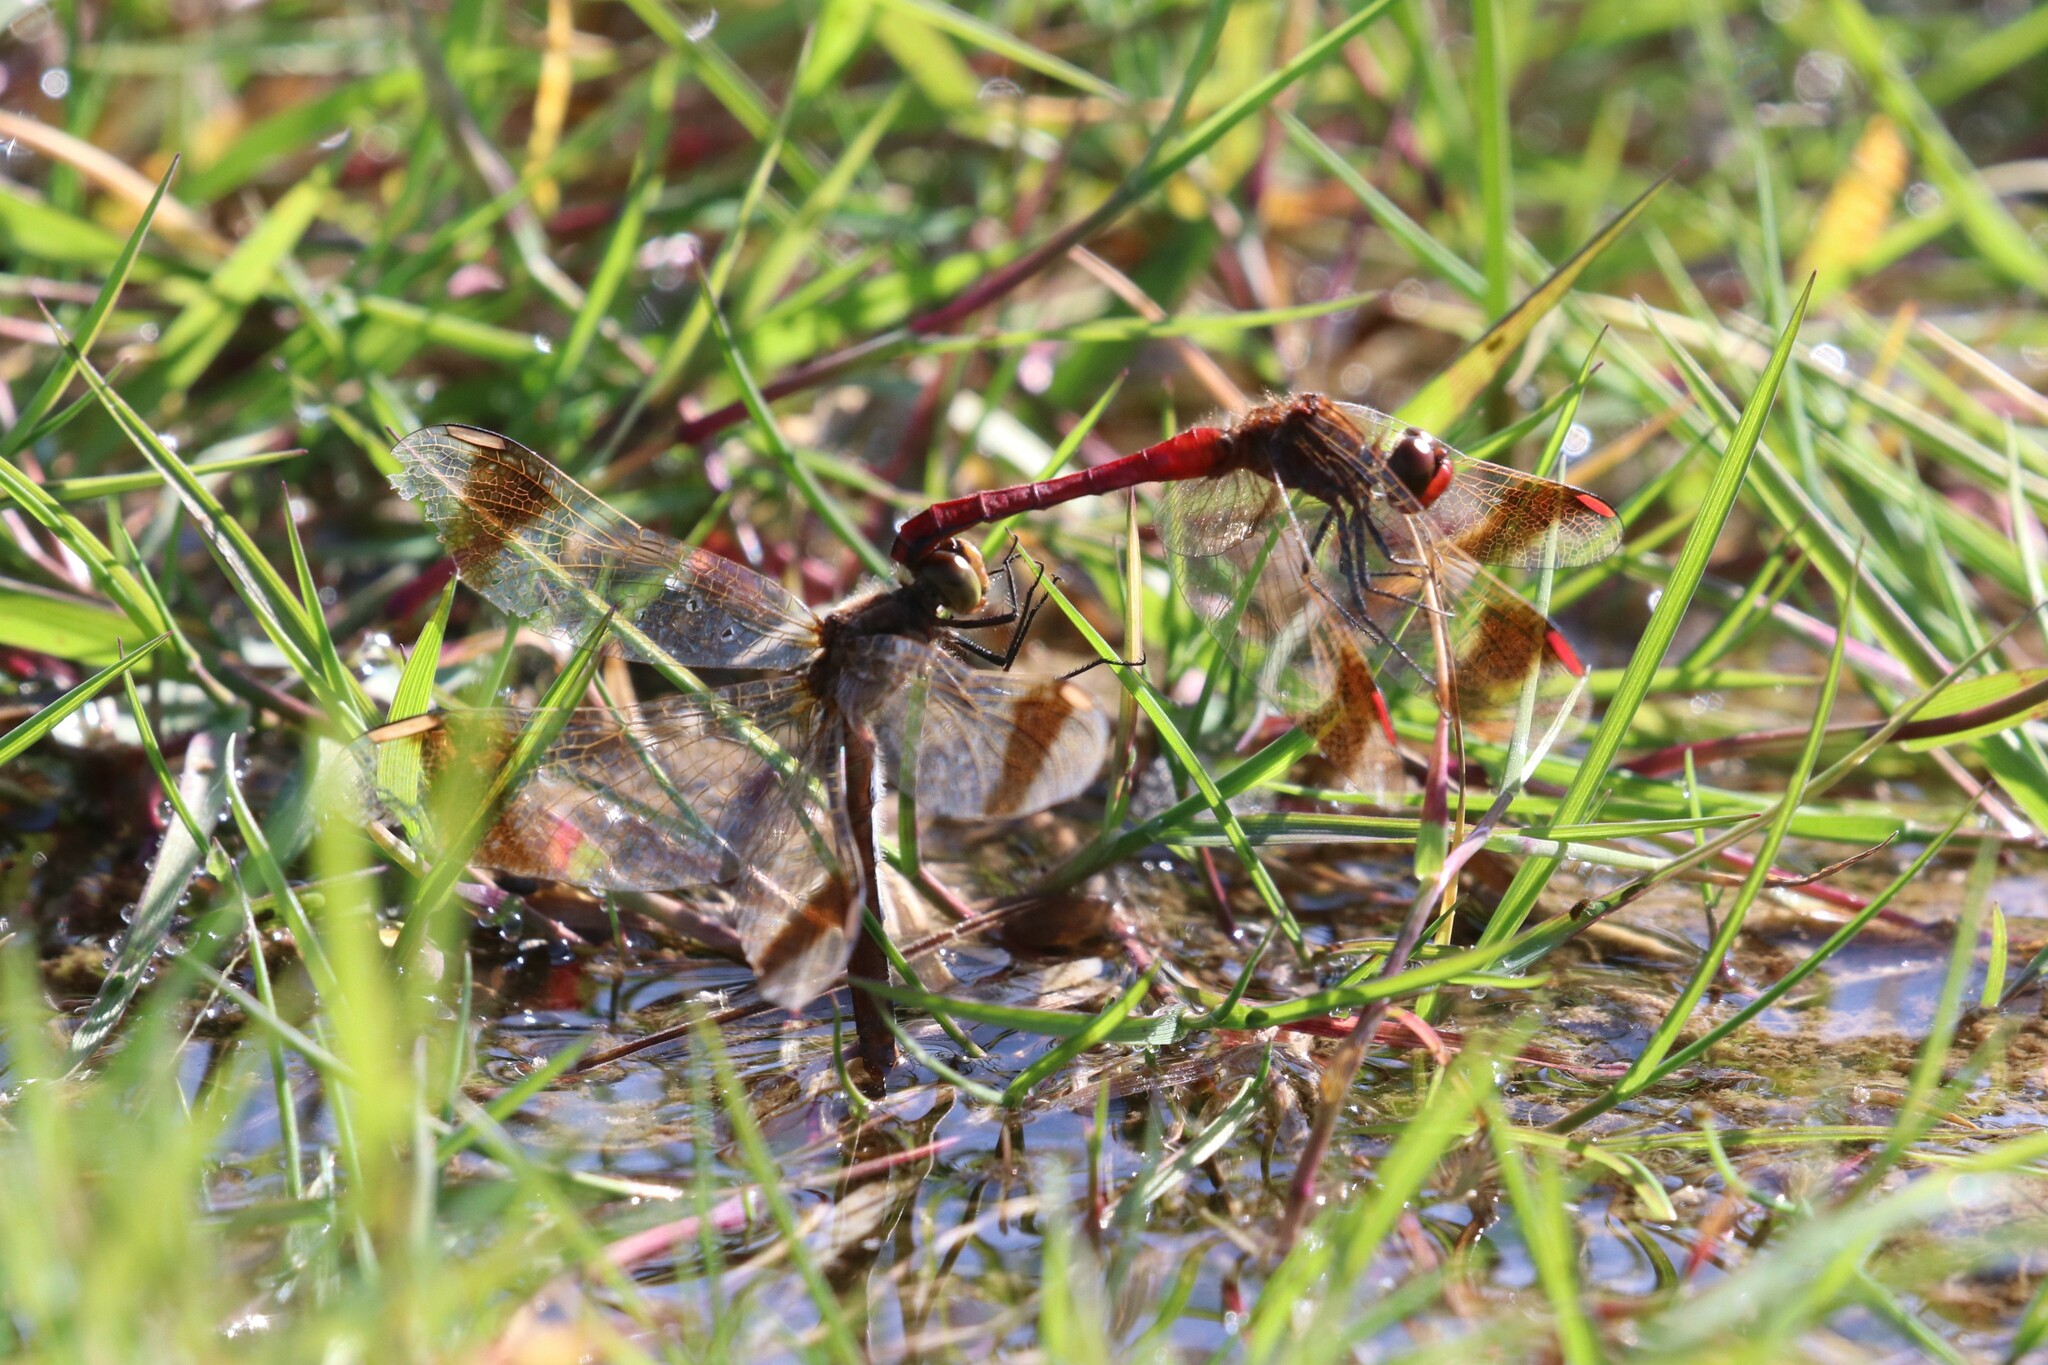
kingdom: Animalia
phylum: Arthropoda
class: Insecta
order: Odonata
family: Libellulidae
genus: Sympetrum
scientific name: Sympetrum pedemontanum
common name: Banded darter
